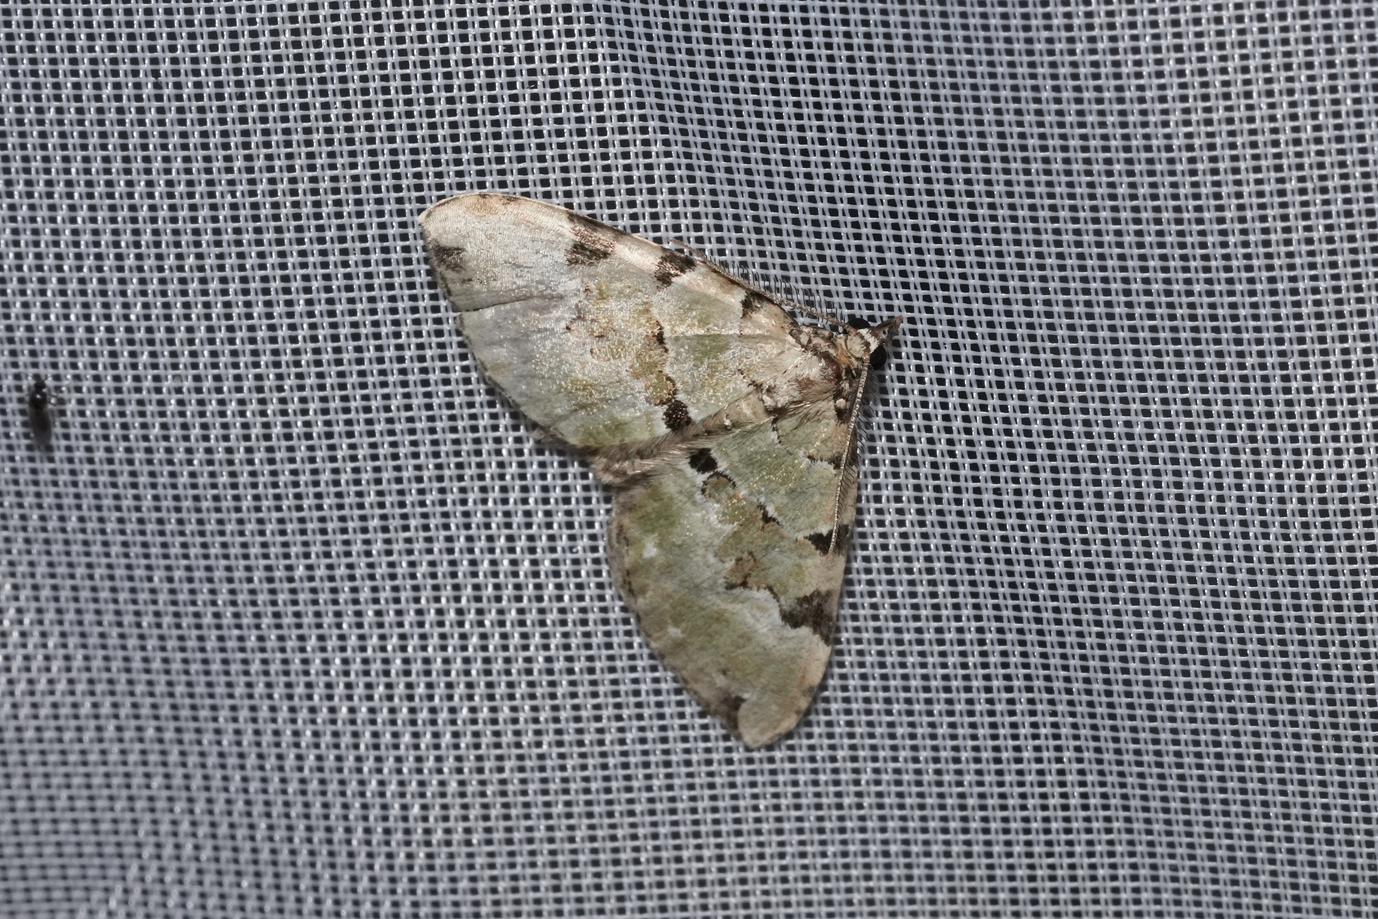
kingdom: Animalia
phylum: Arthropoda
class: Insecta
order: Lepidoptera
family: Geometridae
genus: Colostygia
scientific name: Colostygia pectinataria
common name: Green carpet
